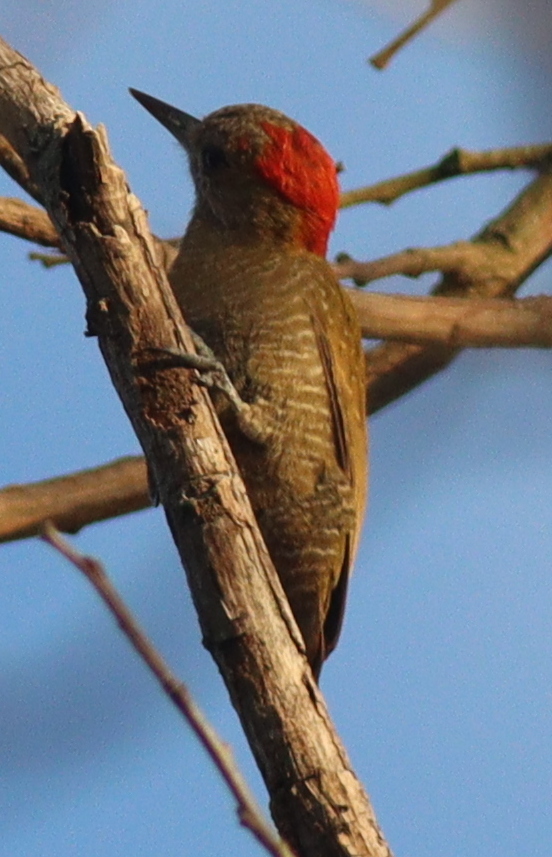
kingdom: Animalia
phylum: Chordata
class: Aves
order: Piciformes
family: Picidae
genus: Veniliornis
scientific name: Veniliornis passerinus
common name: Little woodpecker
